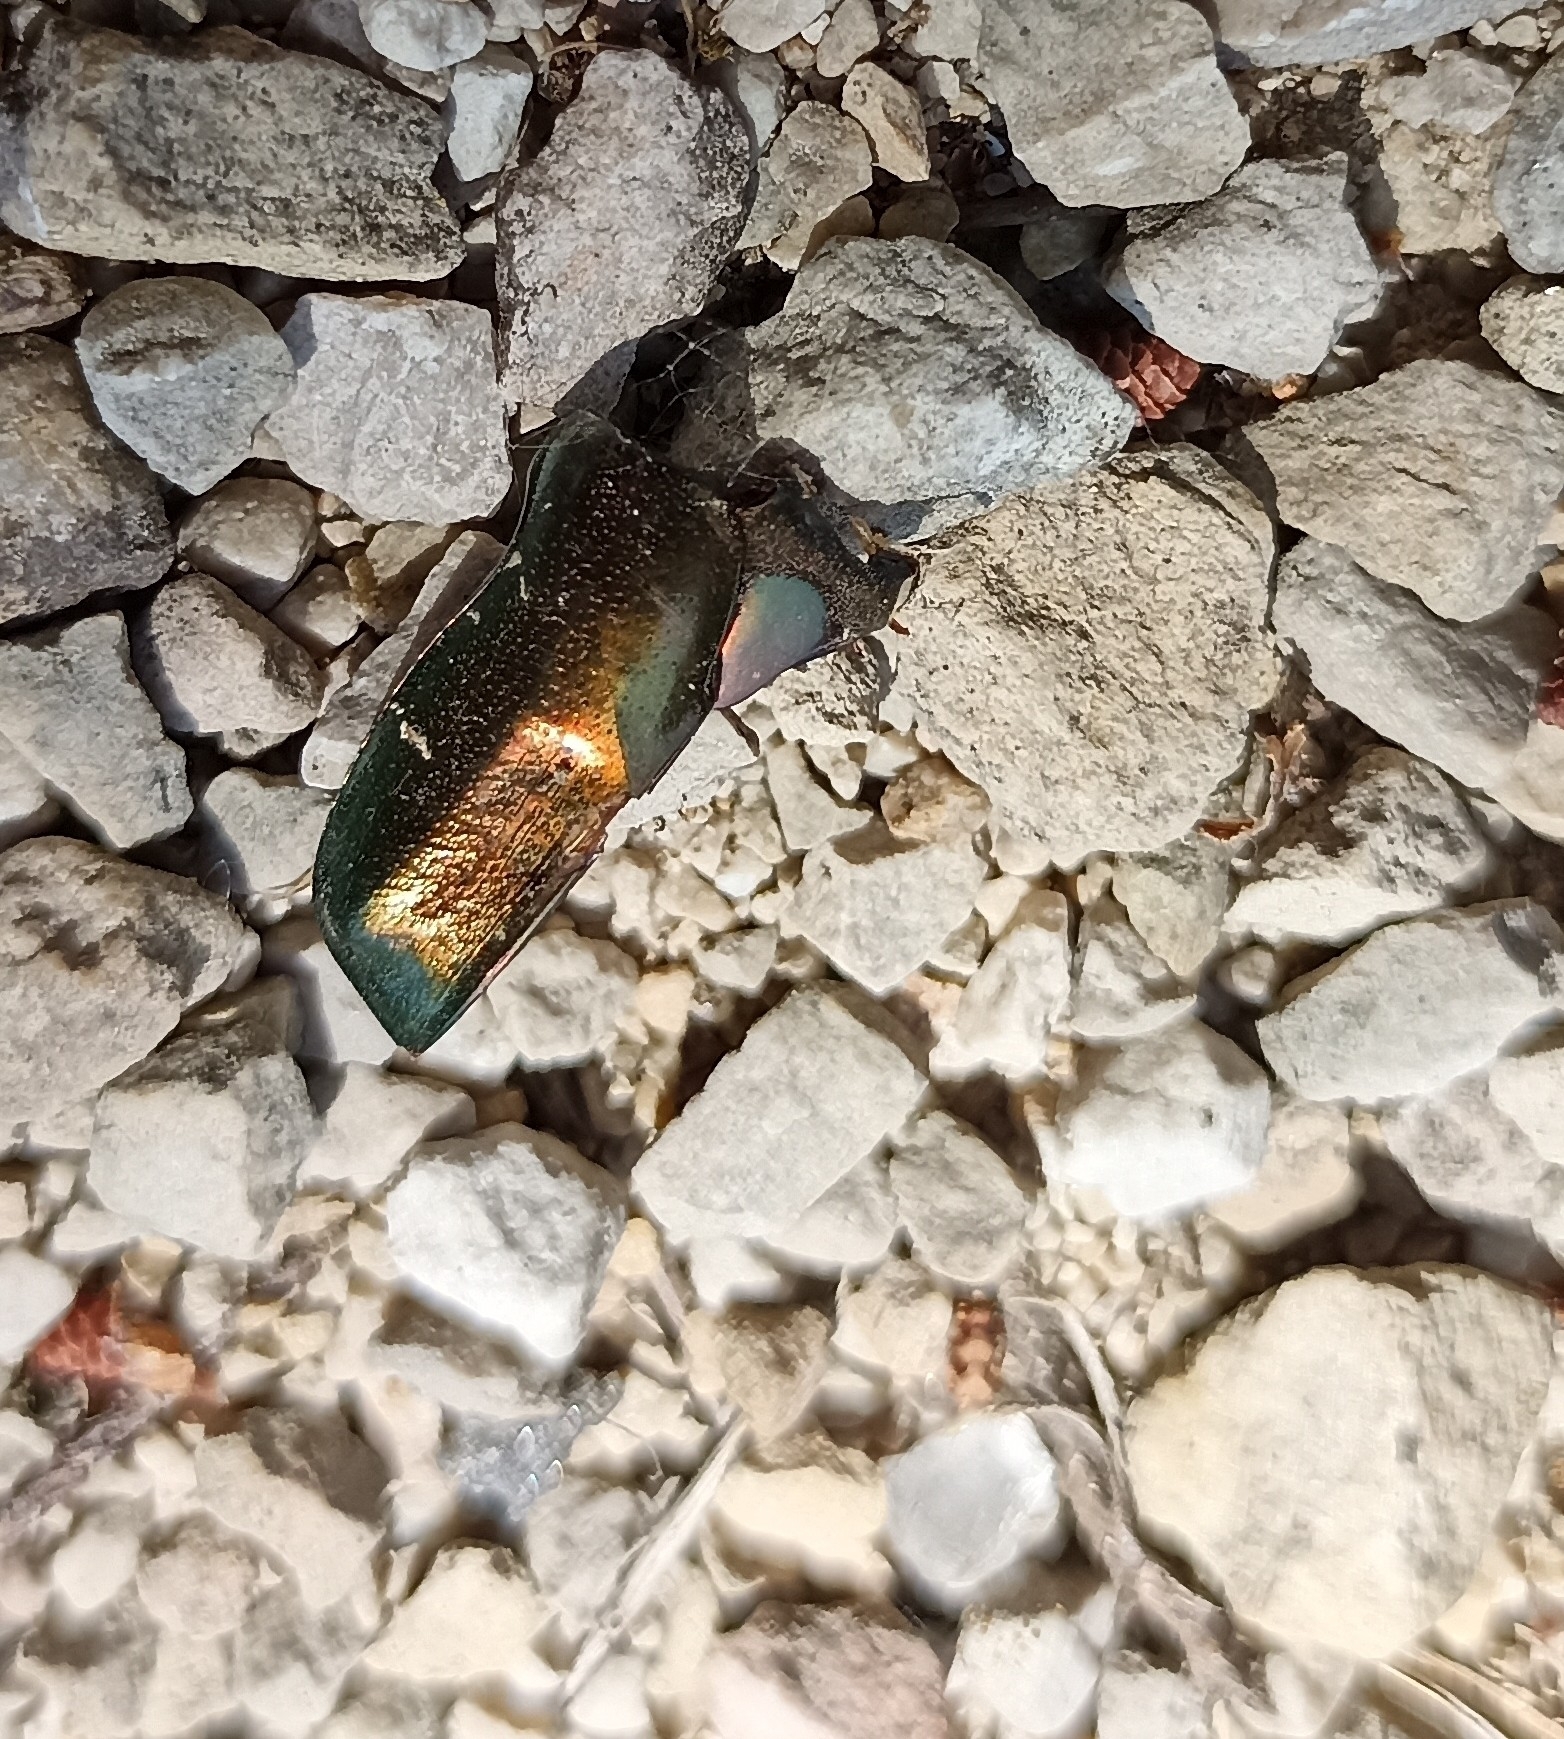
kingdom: Animalia
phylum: Arthropoda
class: Insecta
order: Coleoptera
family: Scarabaeidae
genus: Protaetia
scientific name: Protaetia cuprea
